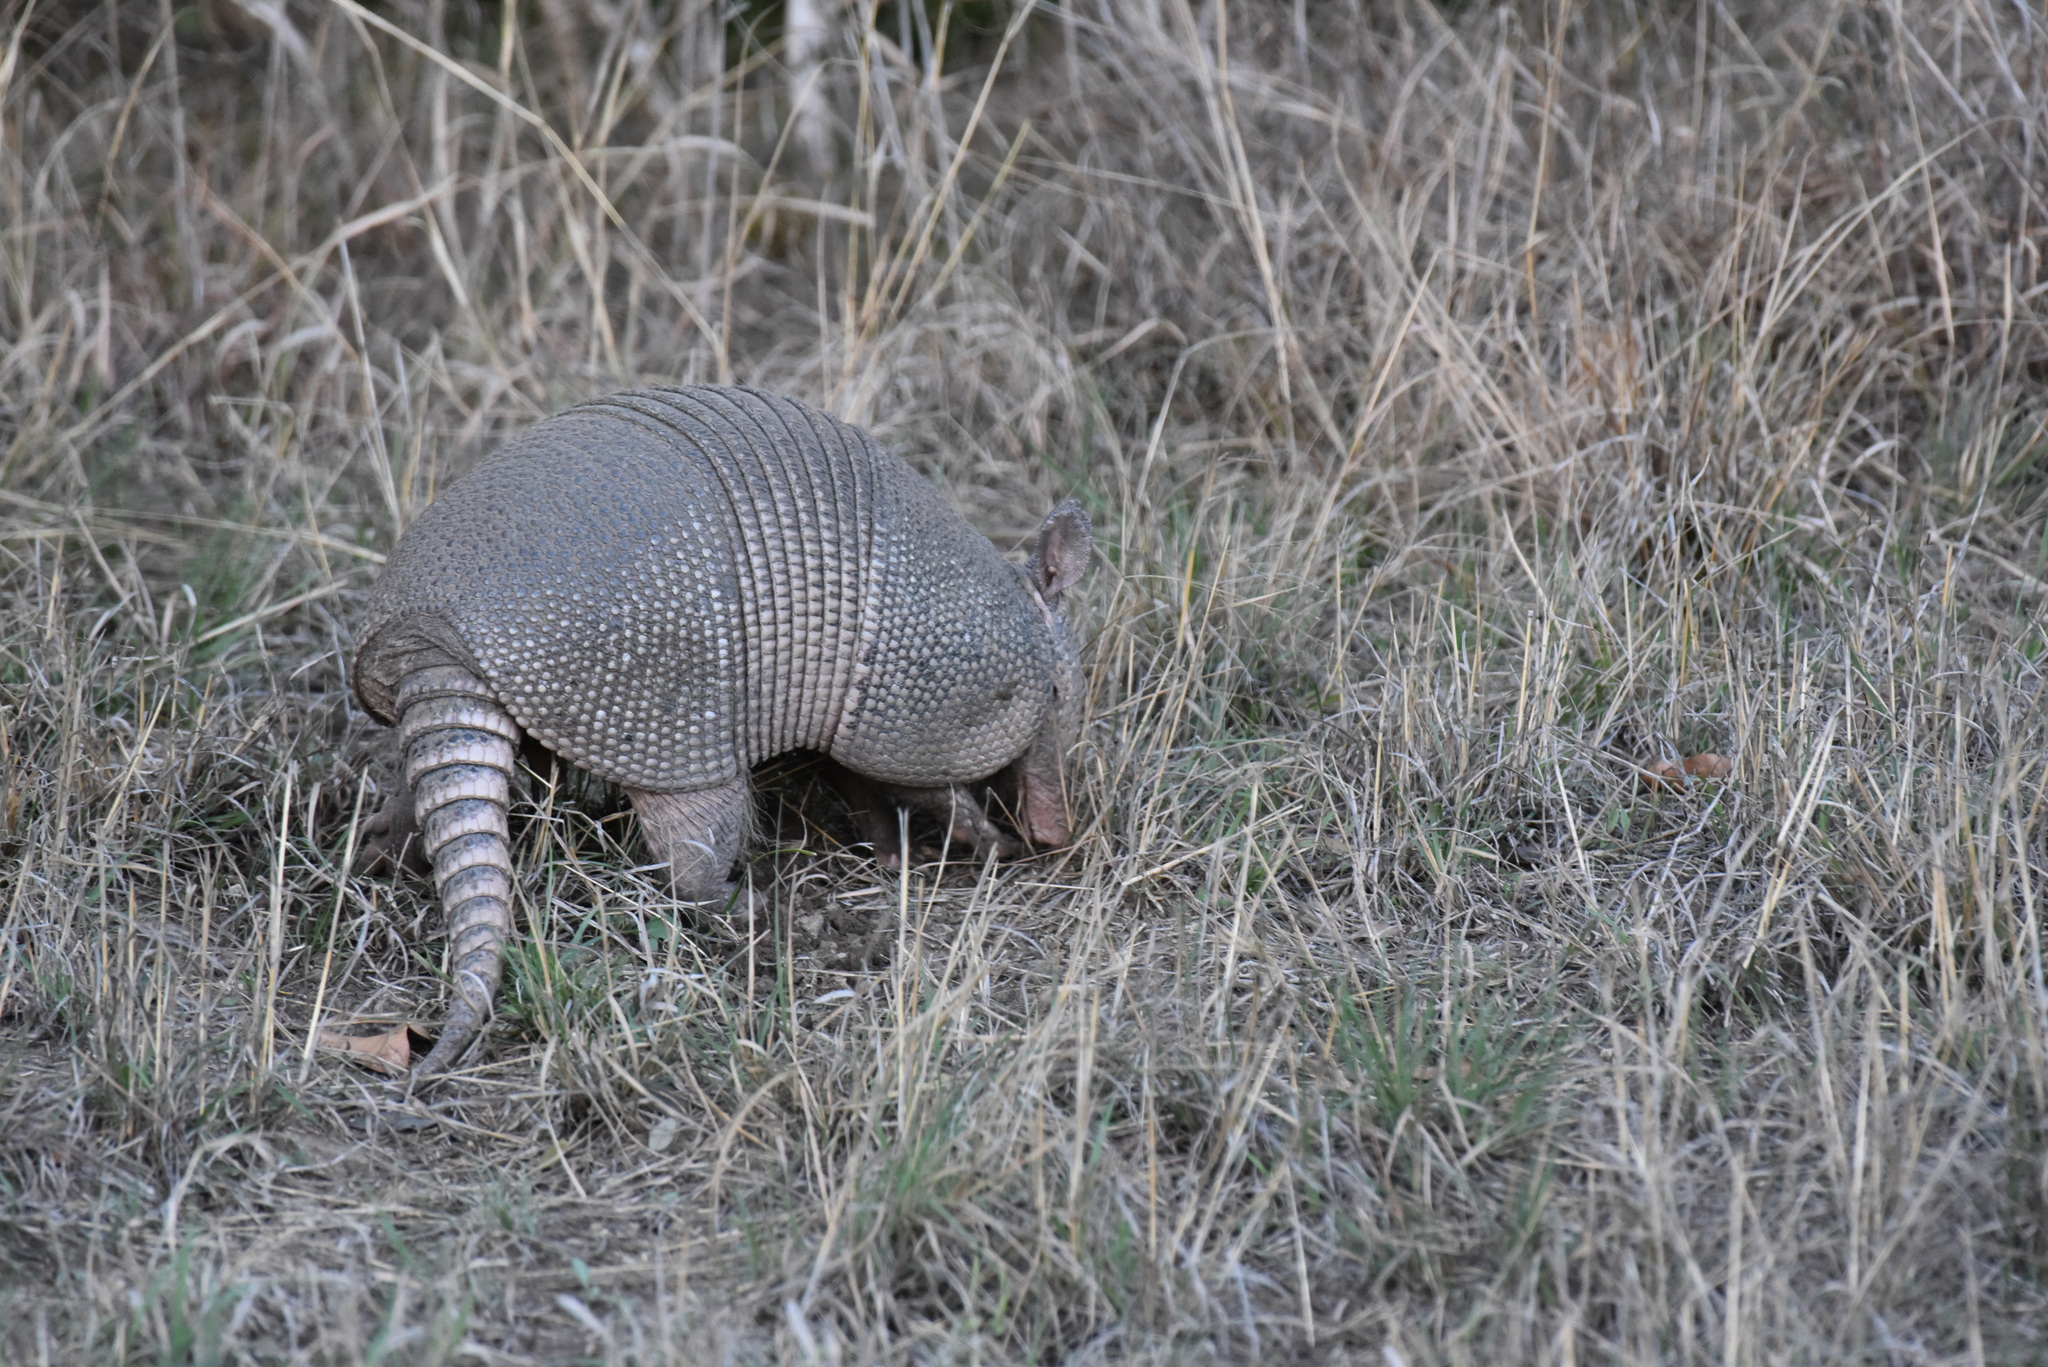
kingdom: Animalia
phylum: Chordata
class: Mammalia
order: Cingulata
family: Dasypodidae
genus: Dasypus
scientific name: Dasypus novemcinctus
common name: Nine-banded armadillo
